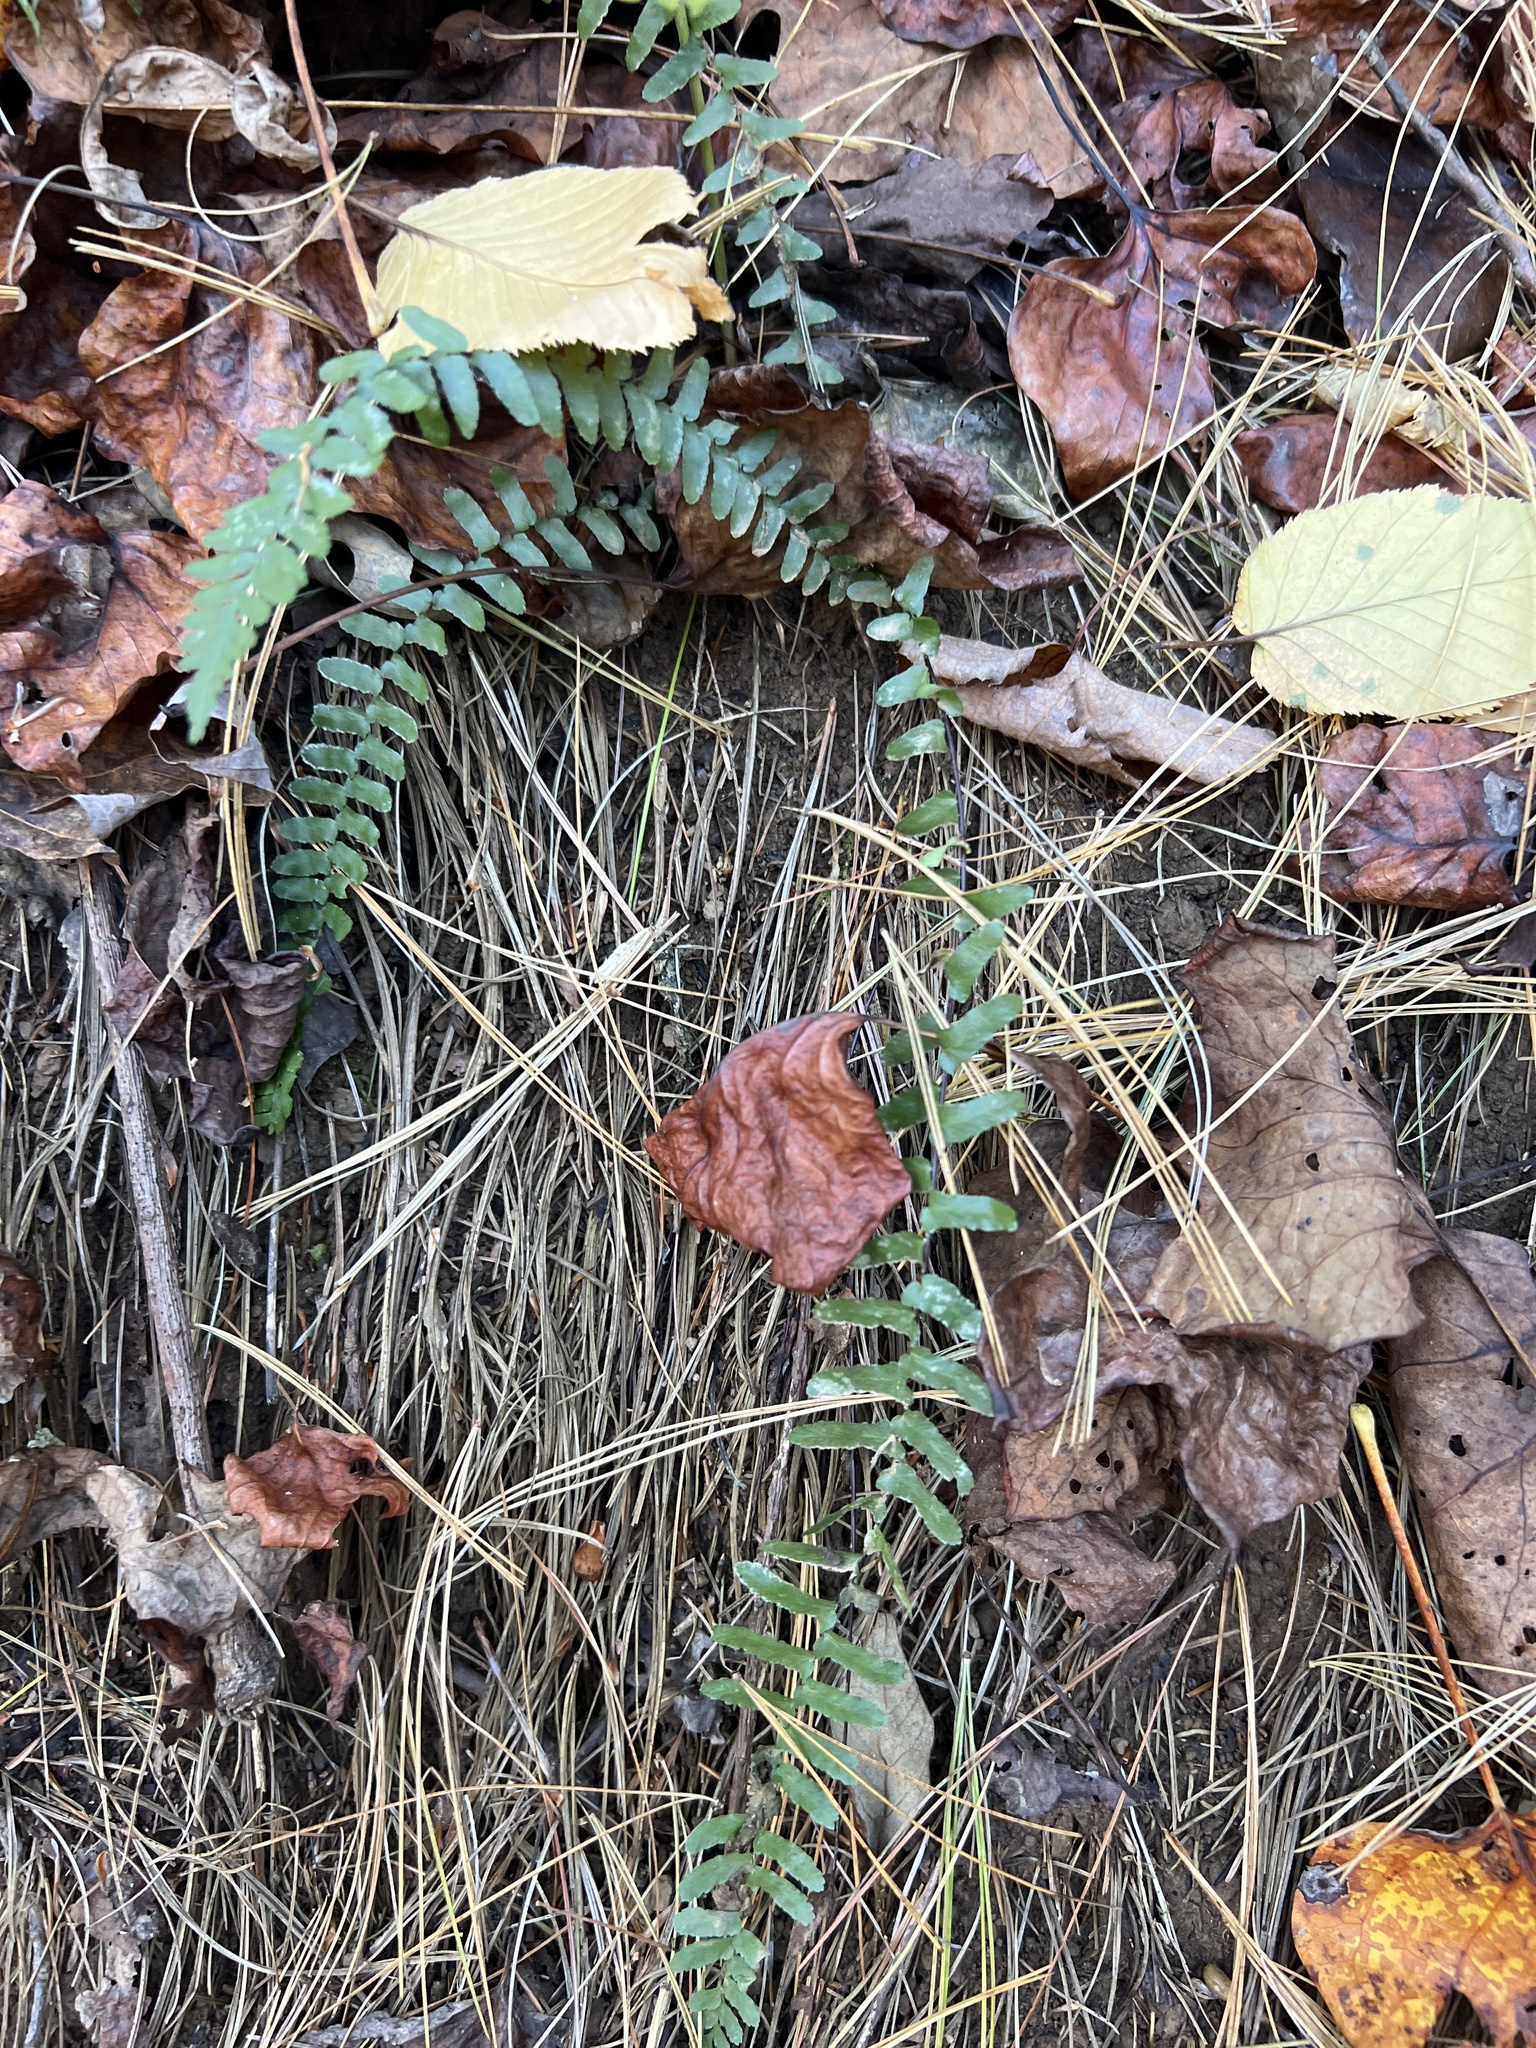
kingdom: Plantae
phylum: Tracheophyta
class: Polypodiopsida
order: Polypodiales
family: Aspleniaceae
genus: Asplenium
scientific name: Asplenium platyneuron
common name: Ebony spleenwort
